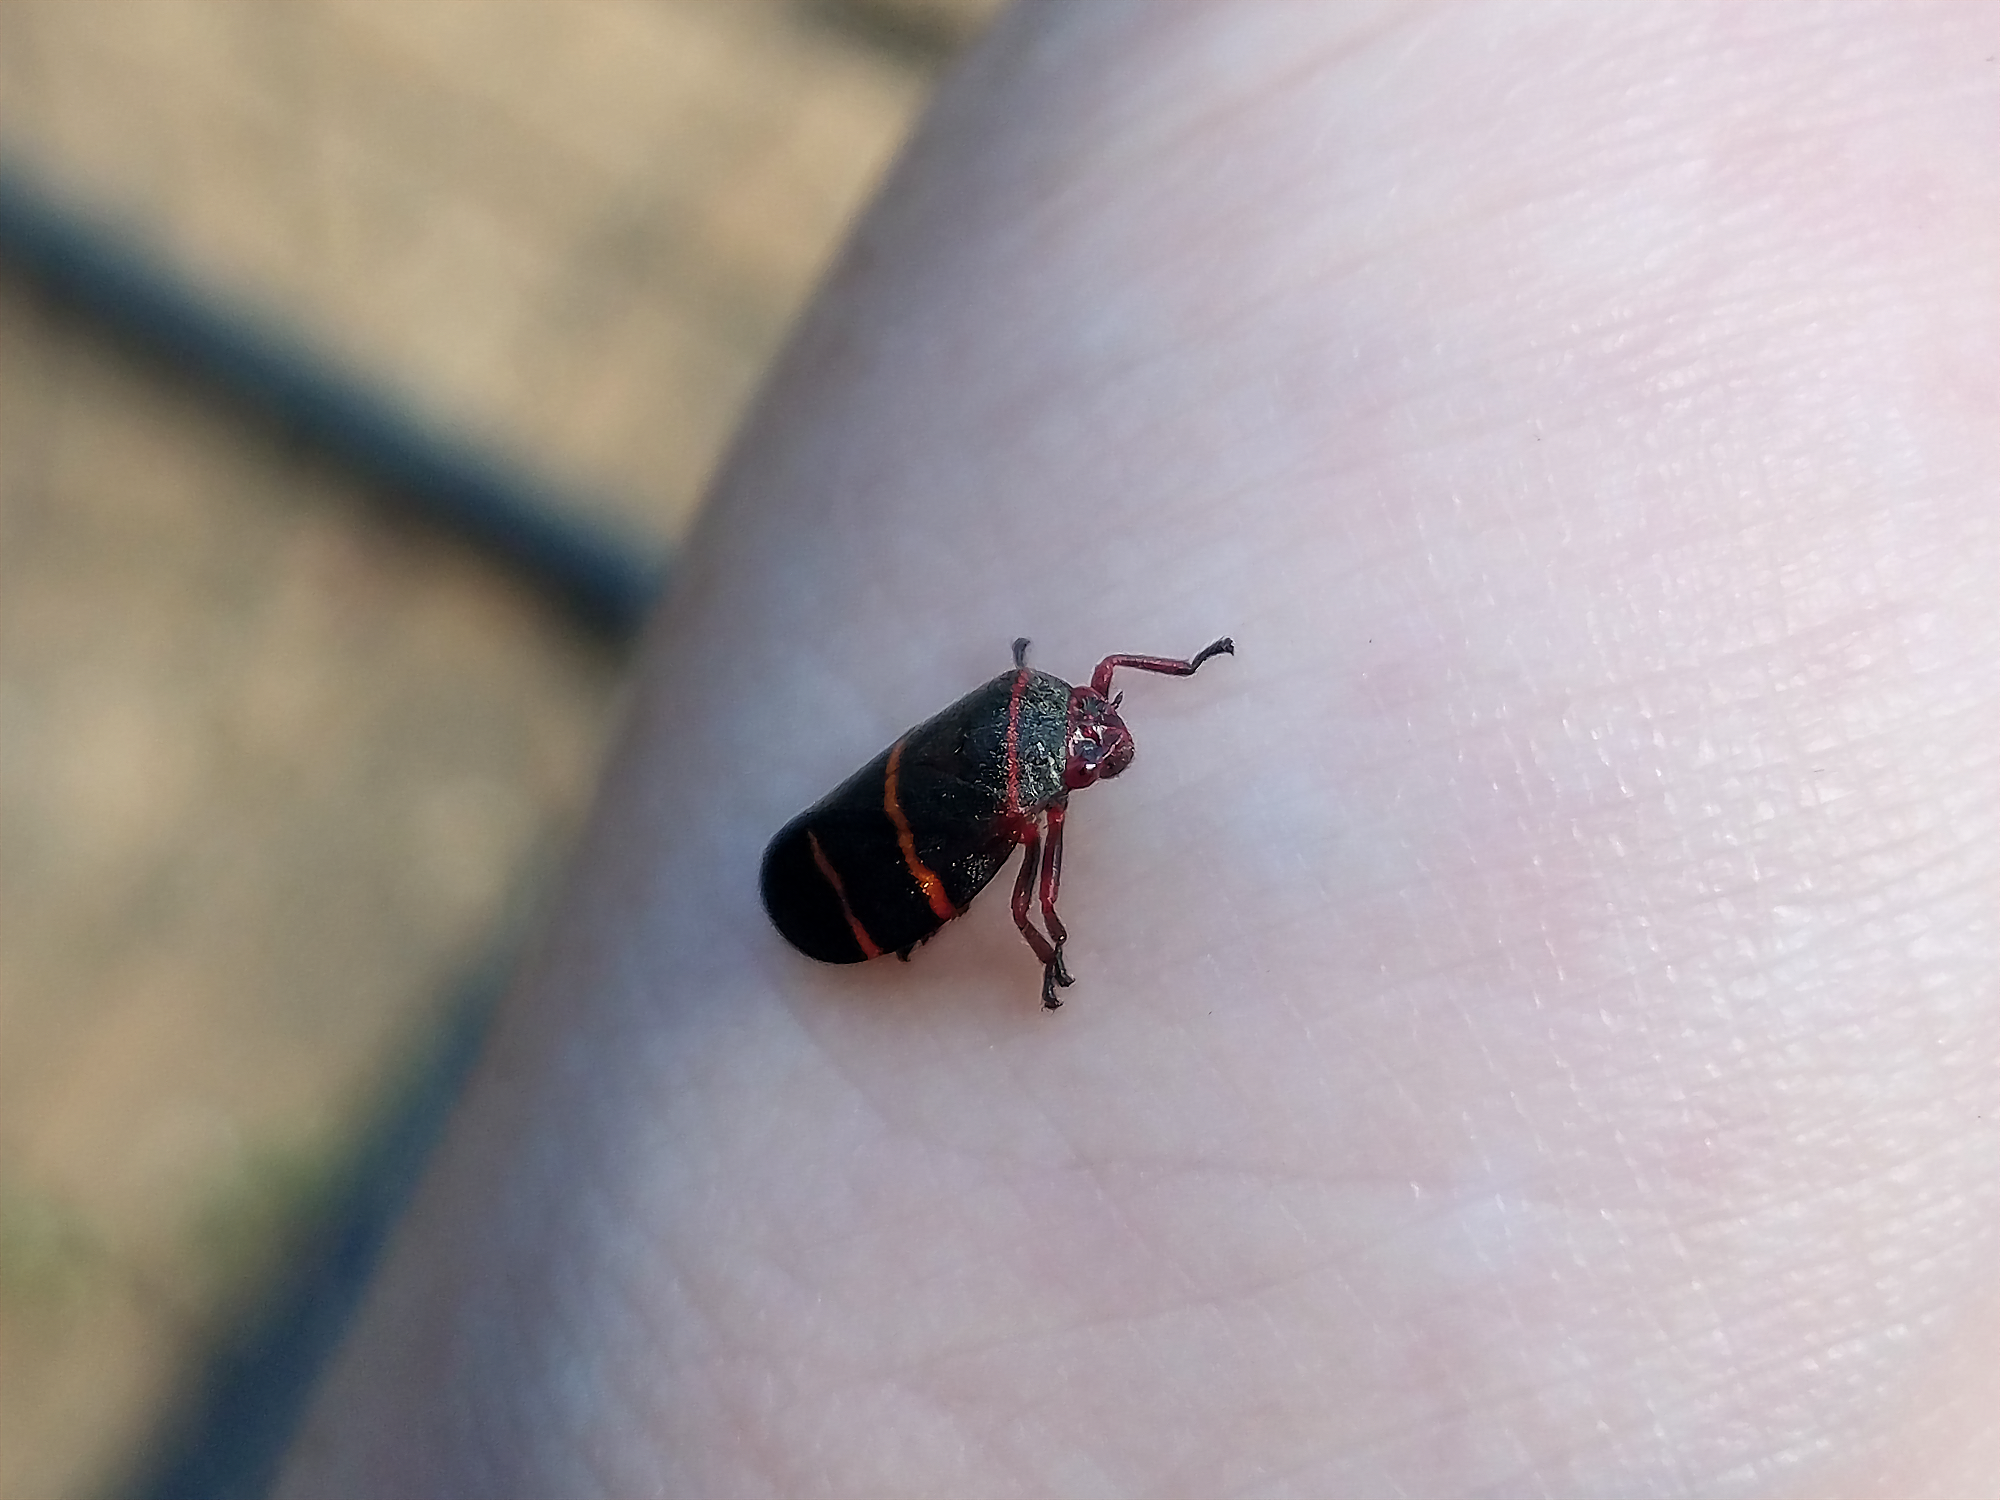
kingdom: Animalia
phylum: Arthropoda
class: Insecta
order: Hemiptera
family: Cercopidae
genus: Prosapia
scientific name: Prosapia bicincta
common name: Twolined spittlebug
